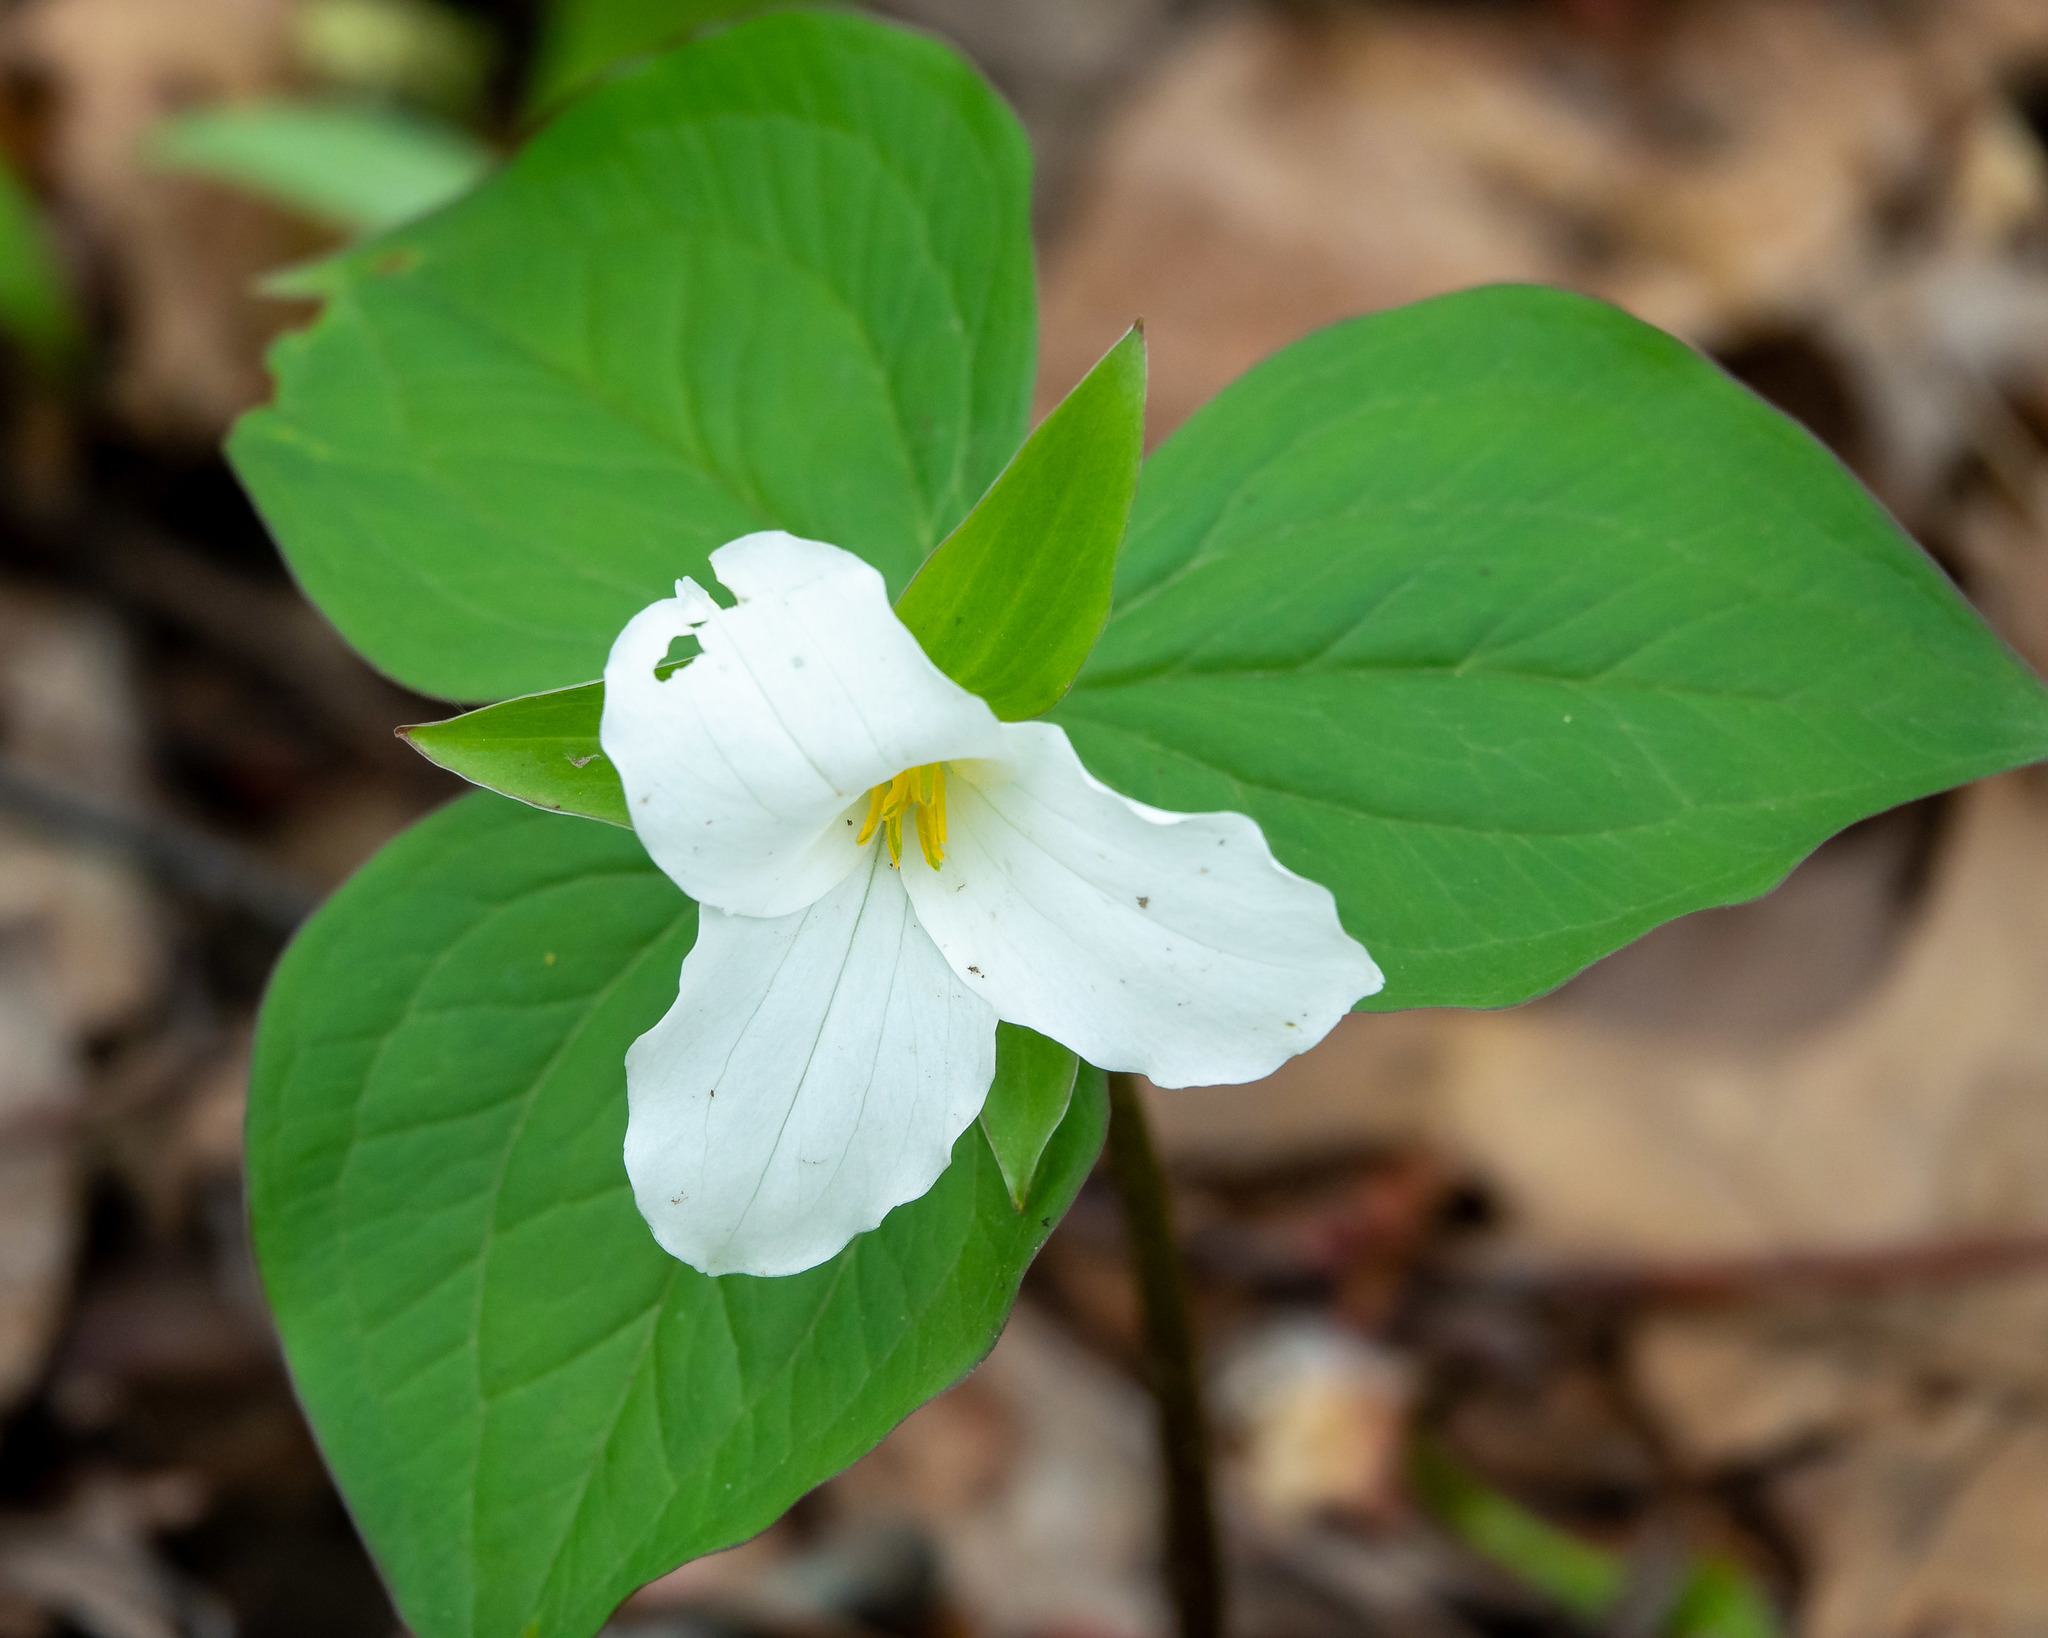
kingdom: Plantae
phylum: Tracheophyta
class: Liliopsida
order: Liliales
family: Melanthiaceae
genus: Trillium
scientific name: Trillium grandiflorum
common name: Great white trillium
